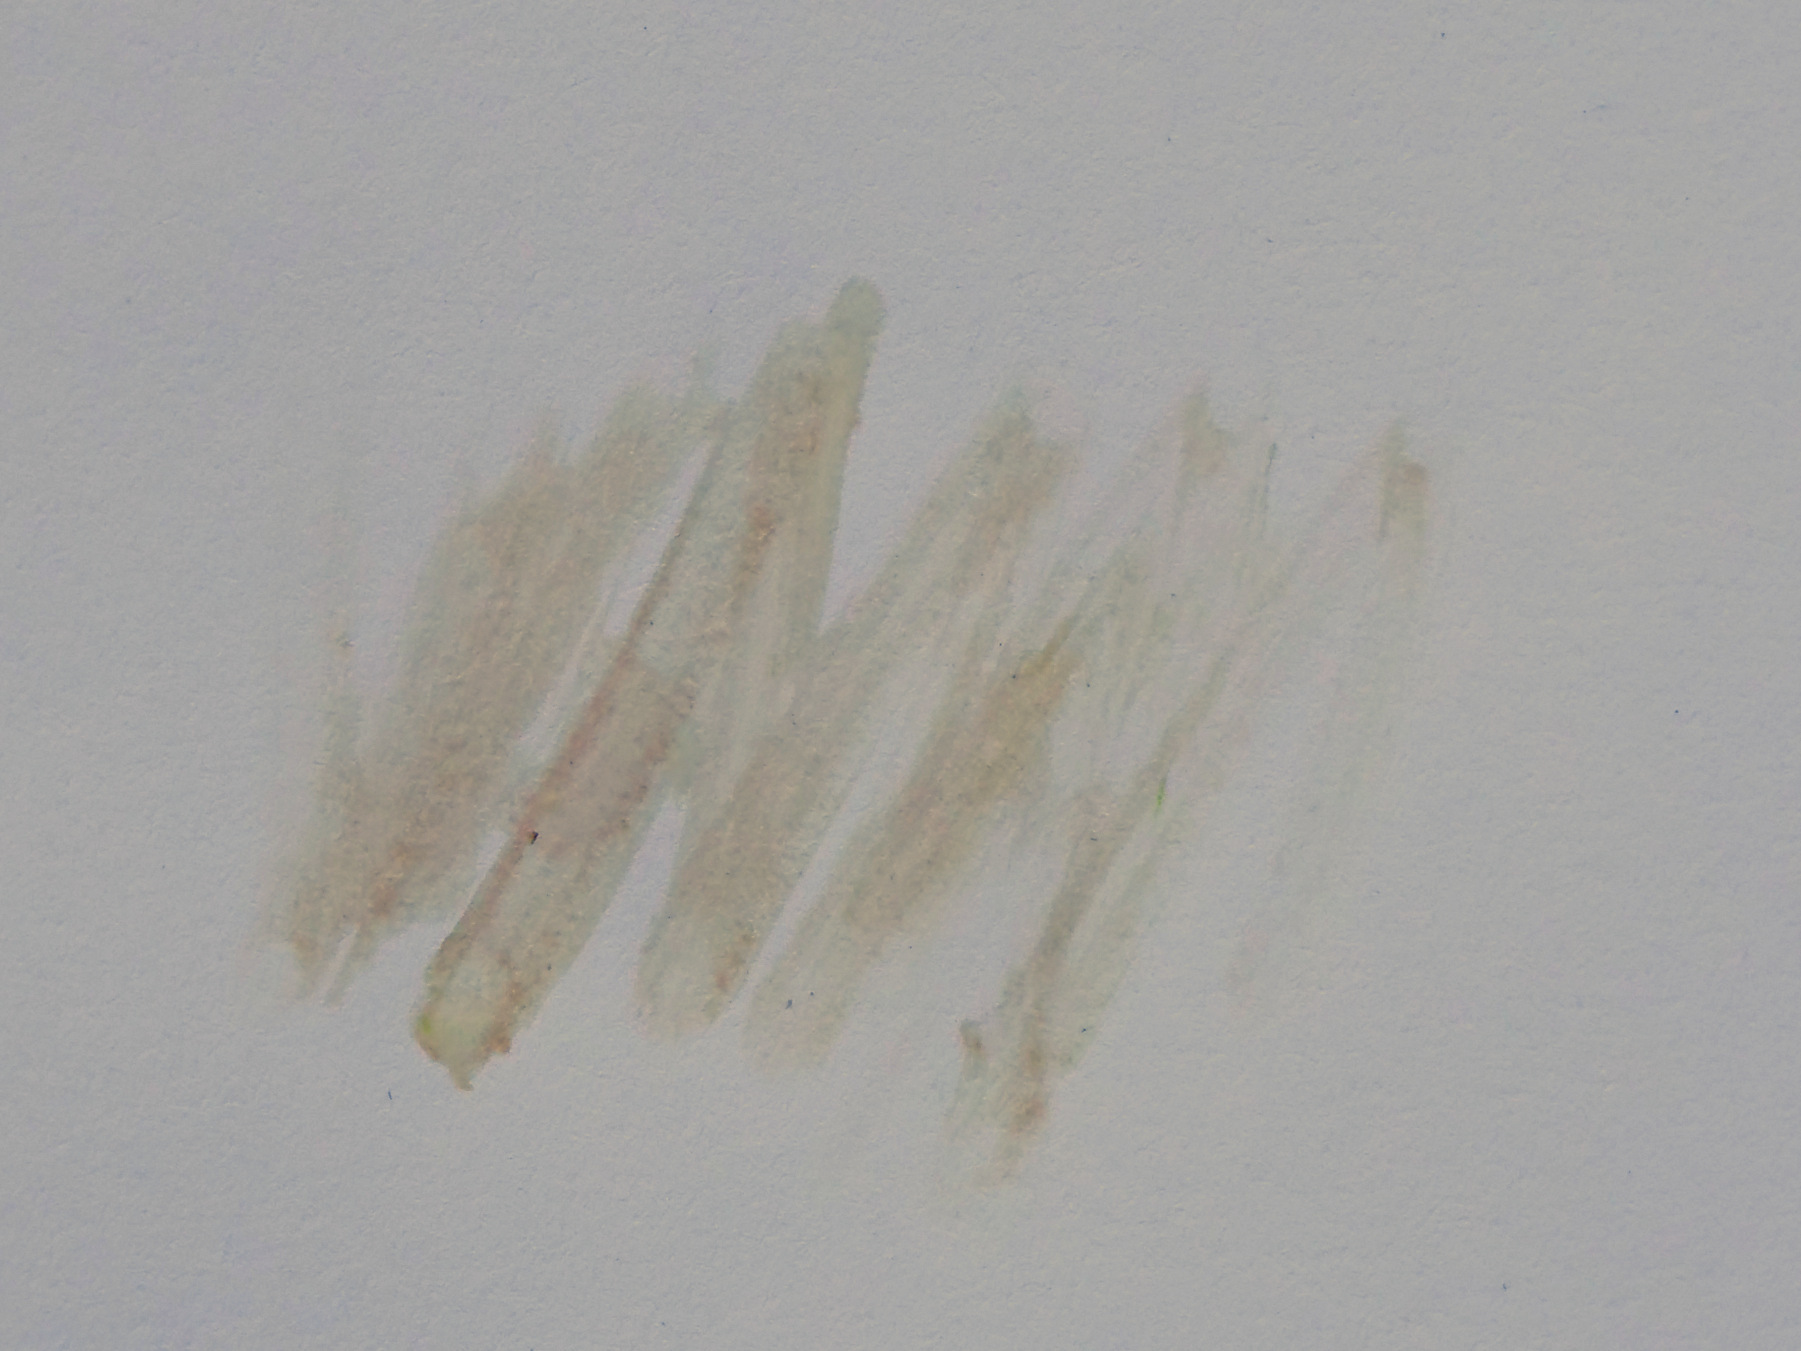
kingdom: Plantae
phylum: Tracheophyta
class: Magnoliopsida
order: Ranunculales
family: Papaveraceae
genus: Papaver
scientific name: Papaver dubium
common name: Long-headed poppy
